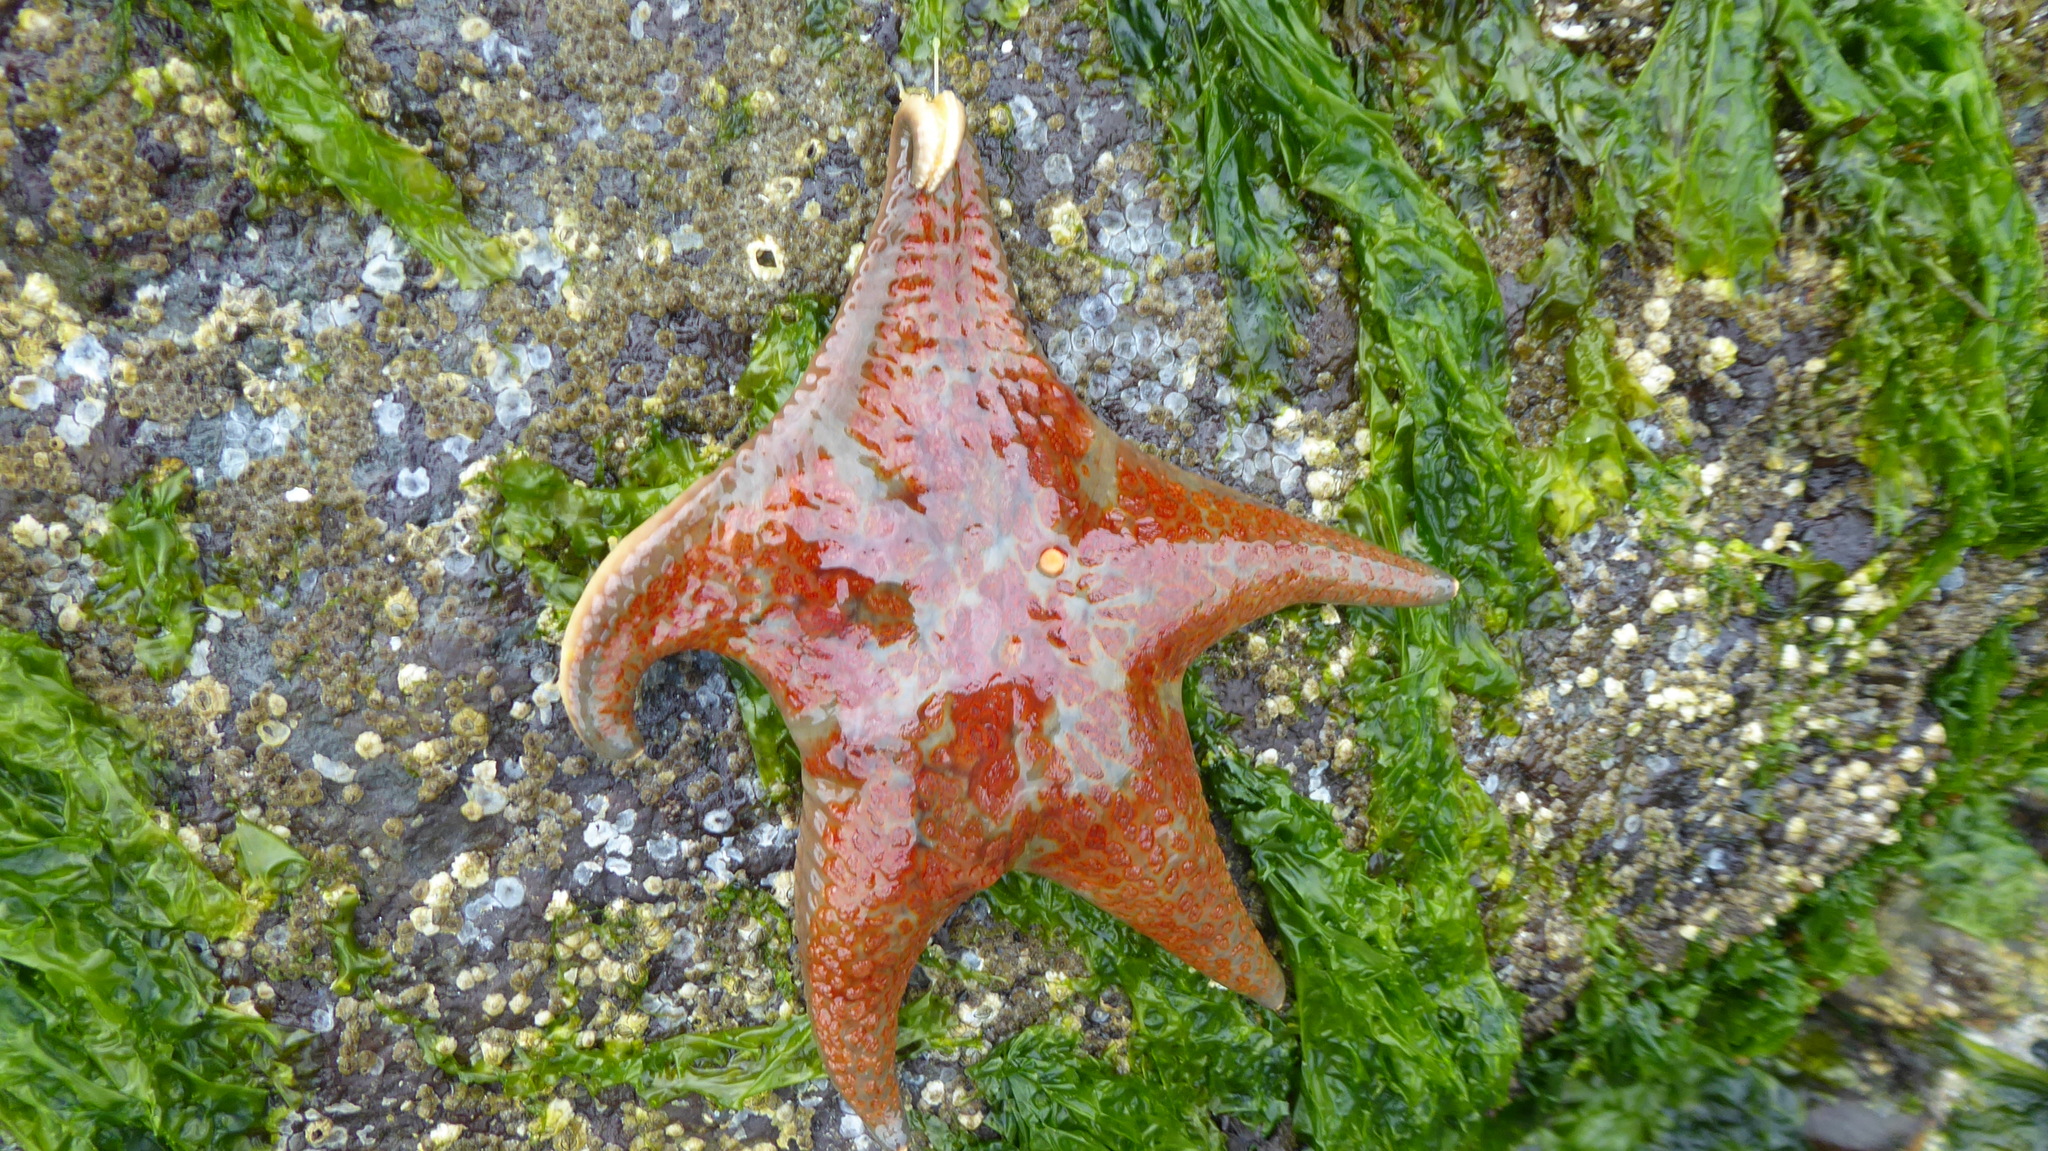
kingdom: Animalia
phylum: Echinodermata
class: Asteroidea
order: Valvatida
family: Asteropseidae
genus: Dermasterias
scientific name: Dermasterias imbricata
